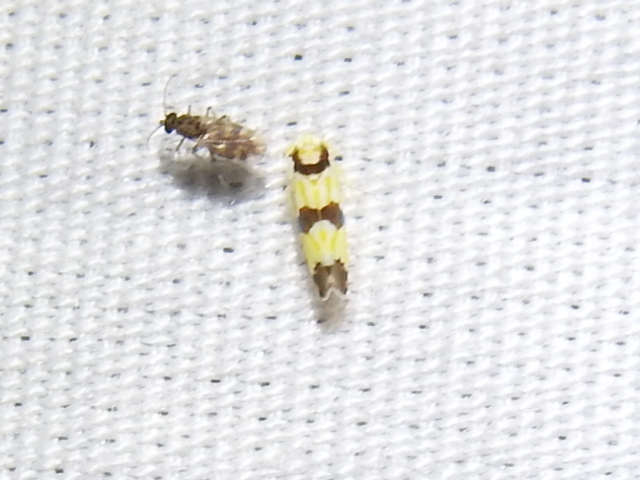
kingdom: Animalia
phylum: Arthropoda
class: Insecta
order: Hemiptera
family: Cicadellidae
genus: Erythroneura
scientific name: Erythroneura calycula
